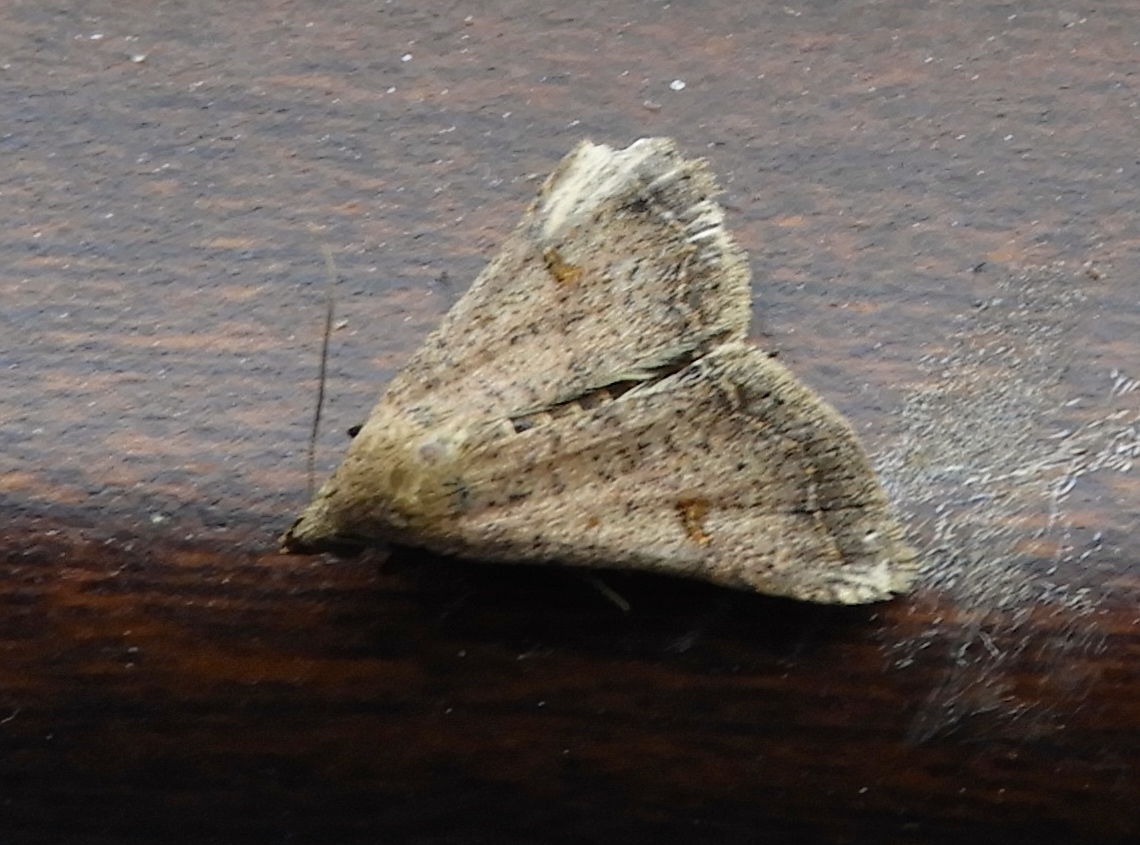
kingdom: Animalia
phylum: Arthropoda
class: Insecta
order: Lepidoptera
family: Erebidae
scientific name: Erebidae
